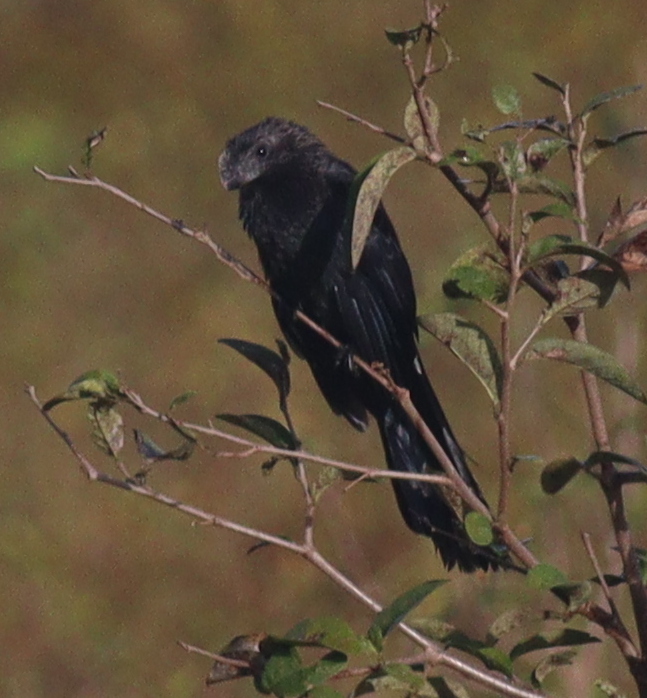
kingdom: Animalia
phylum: Chordata
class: Aves
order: Cuculiformes
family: Cuculidae
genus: Crotophaga
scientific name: Crotophaga ani
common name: Smooth-billed ani
